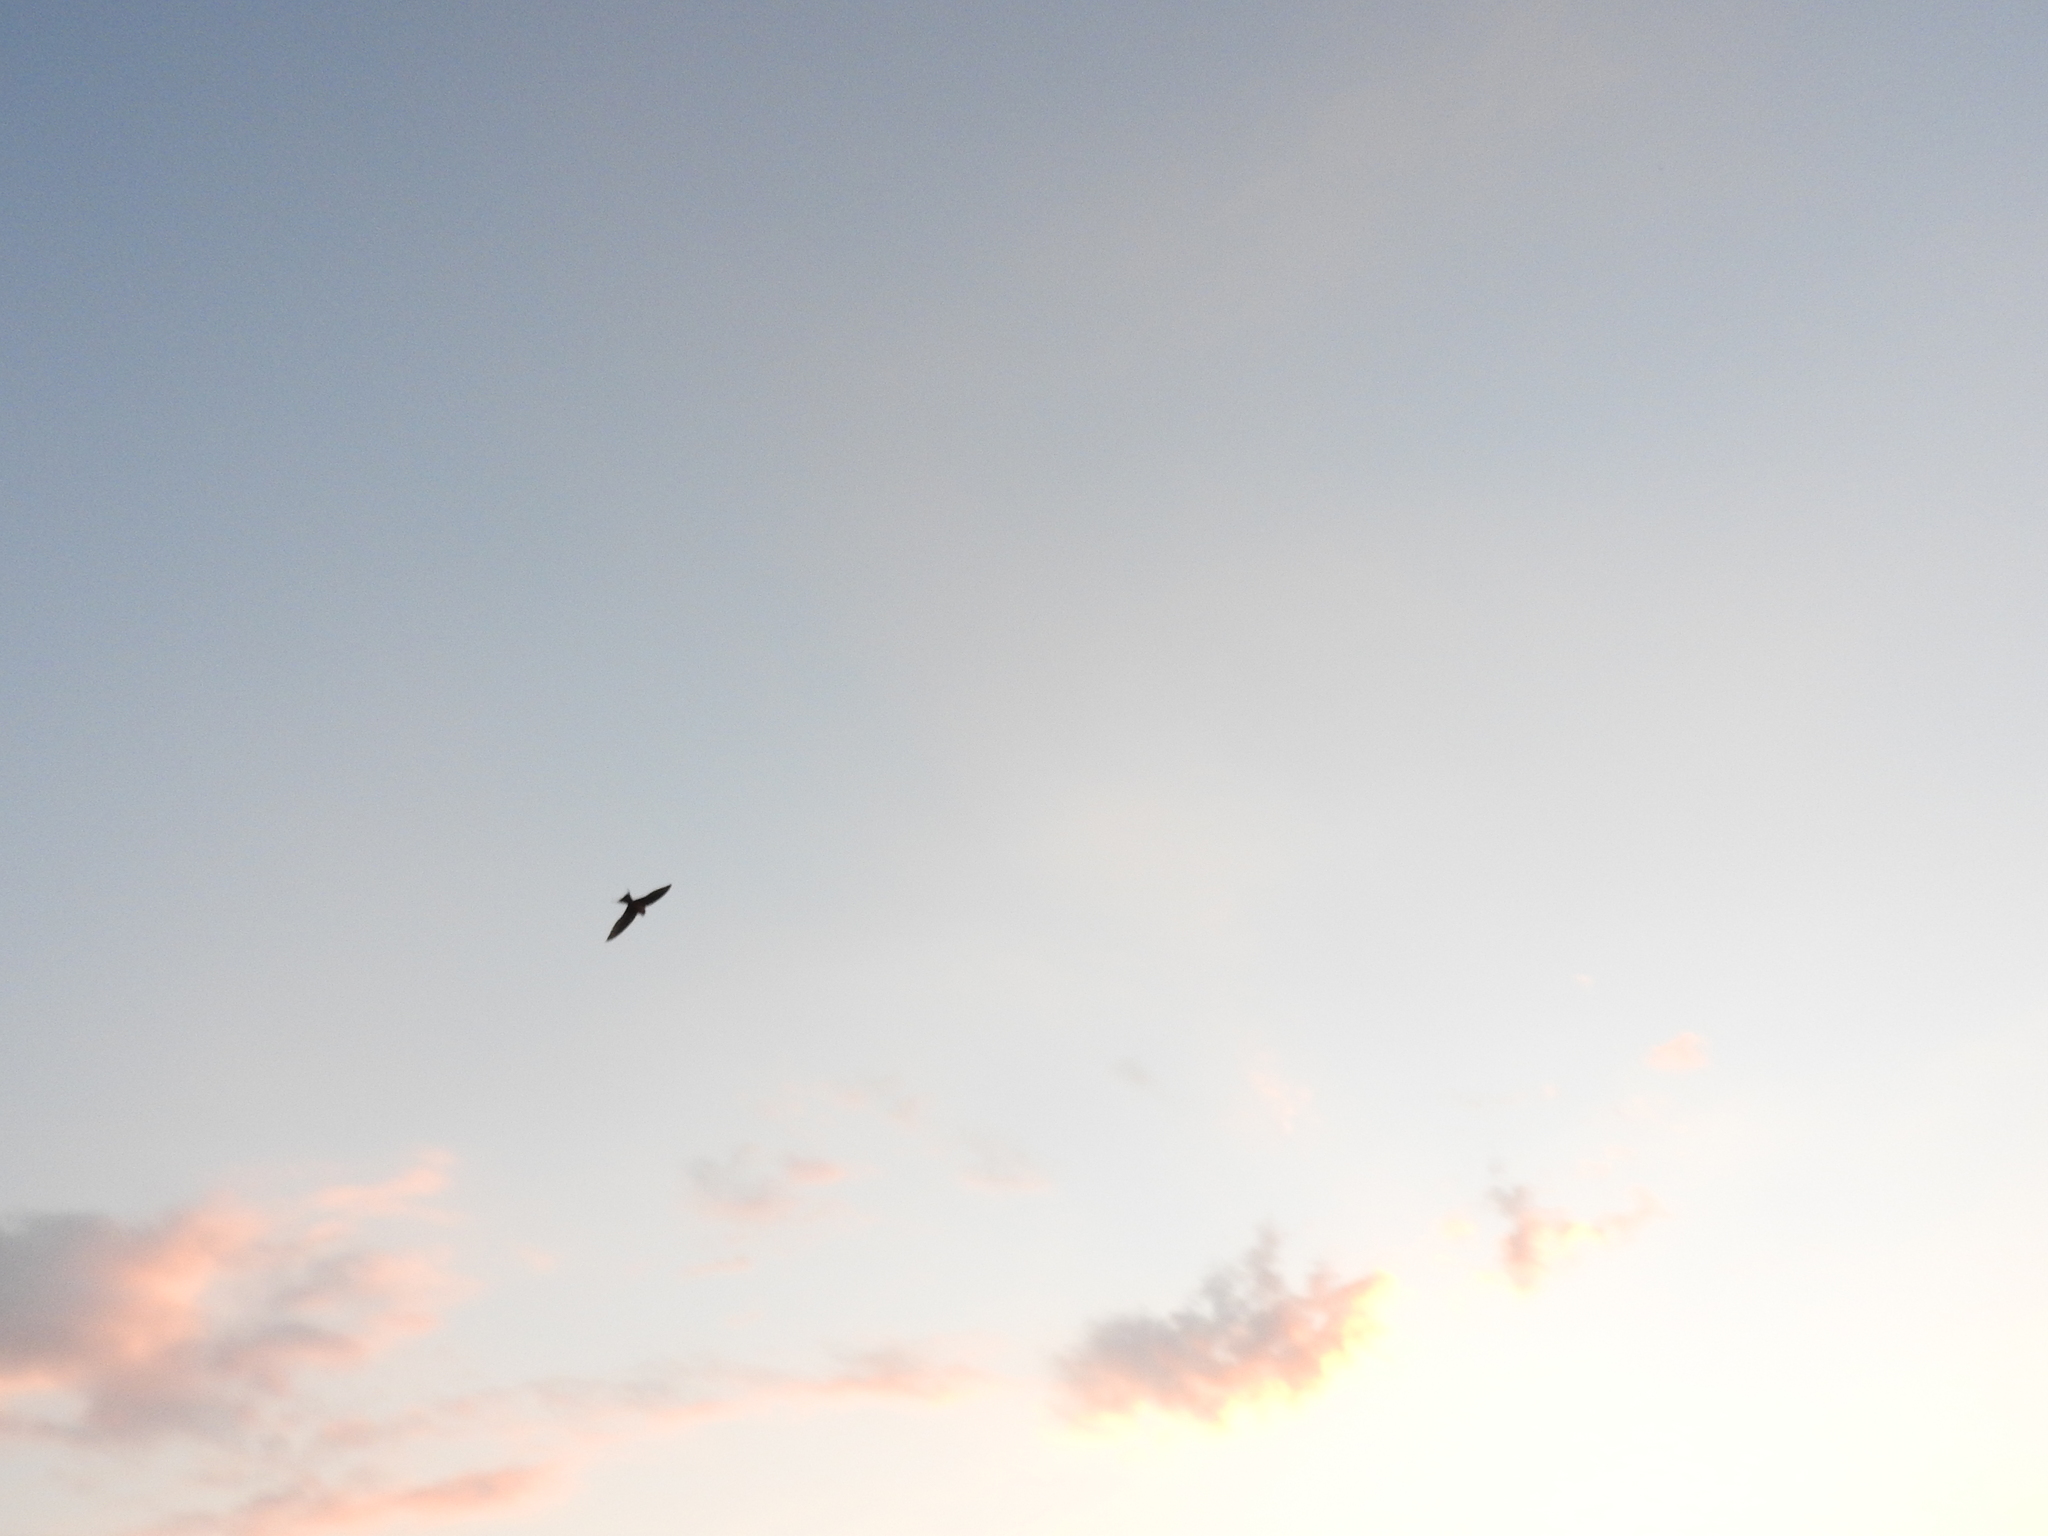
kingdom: Animalia
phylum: Chordata
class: Aves
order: Passeriformes
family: Hirundinidae
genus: Hirundo
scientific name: Hirundo rustica
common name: Barn swallow
